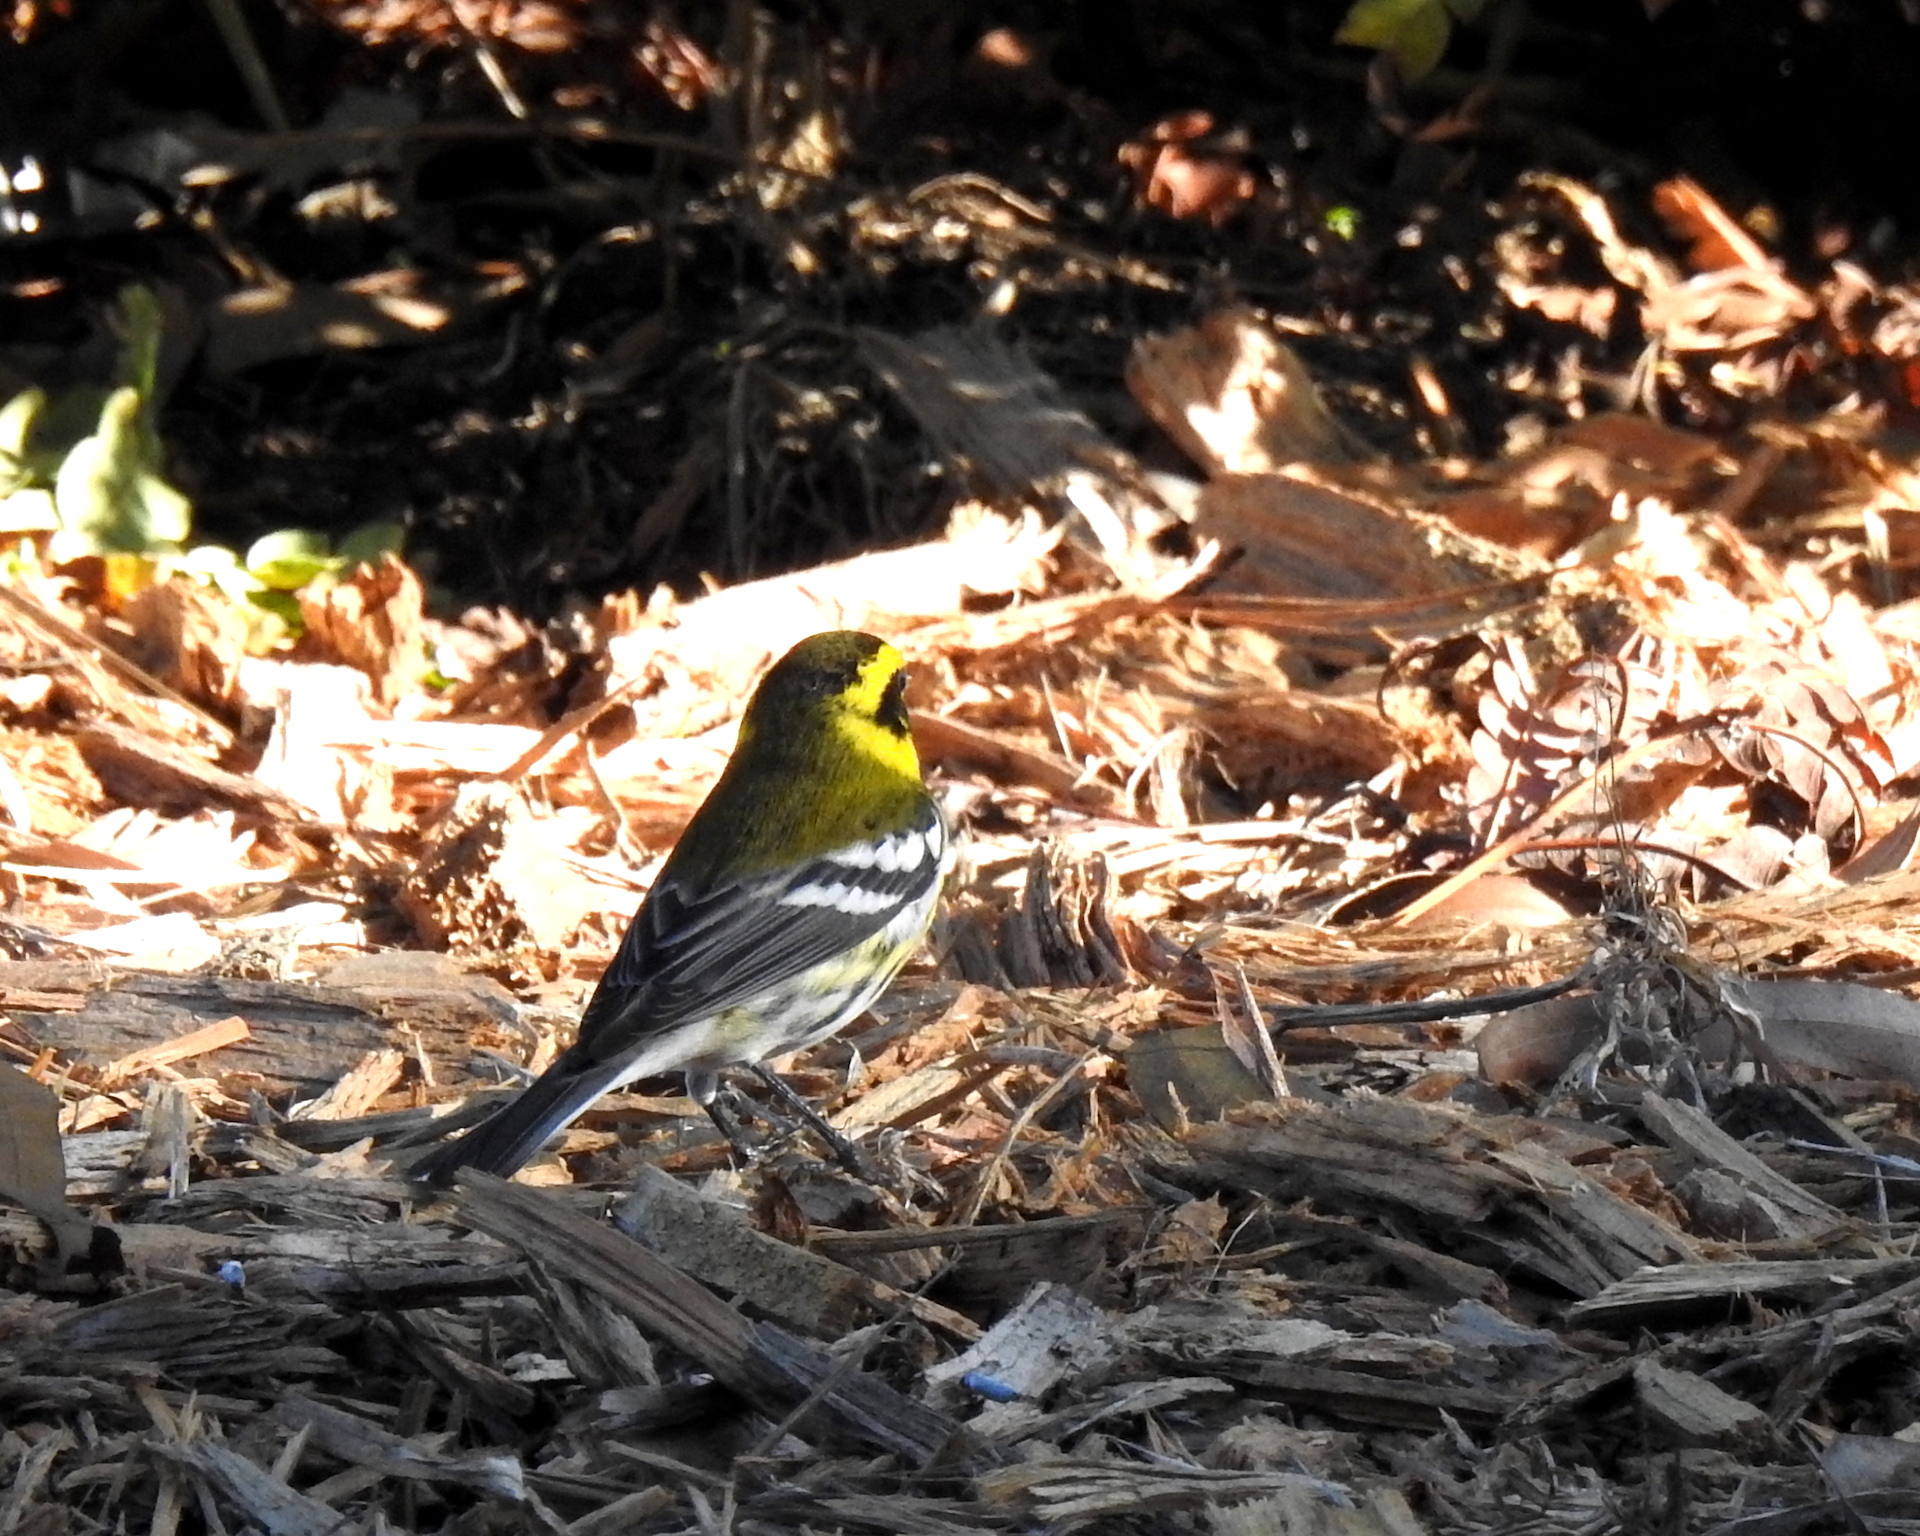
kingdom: Animalia
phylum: Chordata
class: Aves
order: Passeriformes
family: Parulidae
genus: Setophaga
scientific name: Setophaga townsendi
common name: Townsend's warbler
